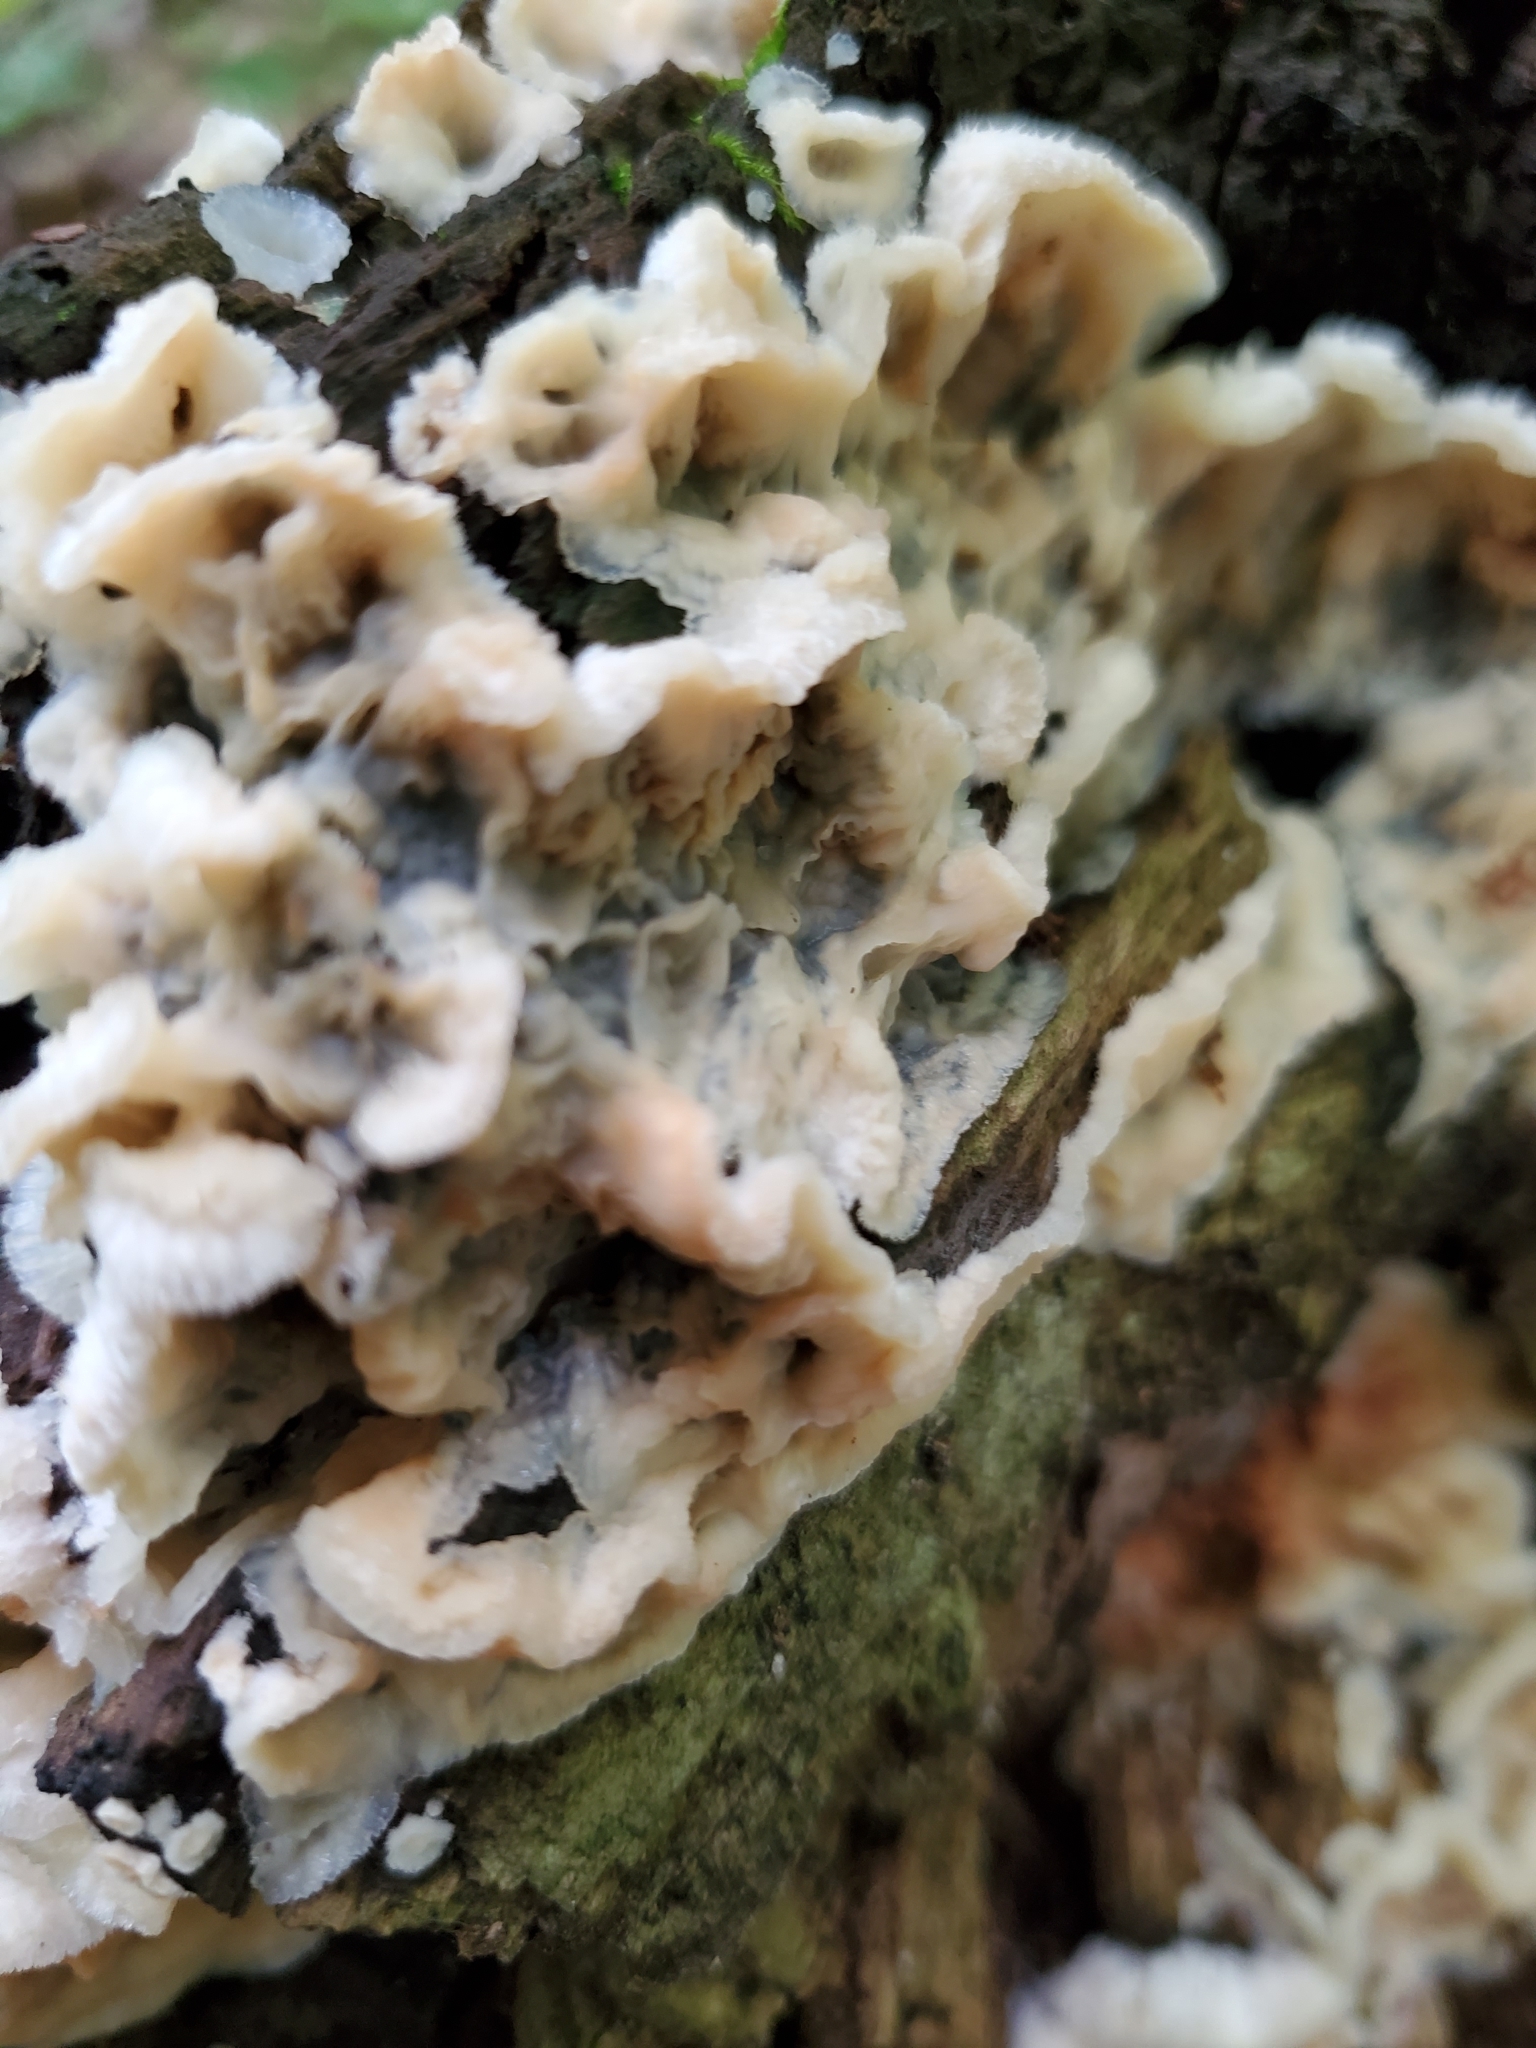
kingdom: Fungi
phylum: Basidiomycota
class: Agaricomycetes
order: Polyporales
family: Meruliaceae
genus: Phlebia
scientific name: Phlebia tremellosa
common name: Jelly rot
